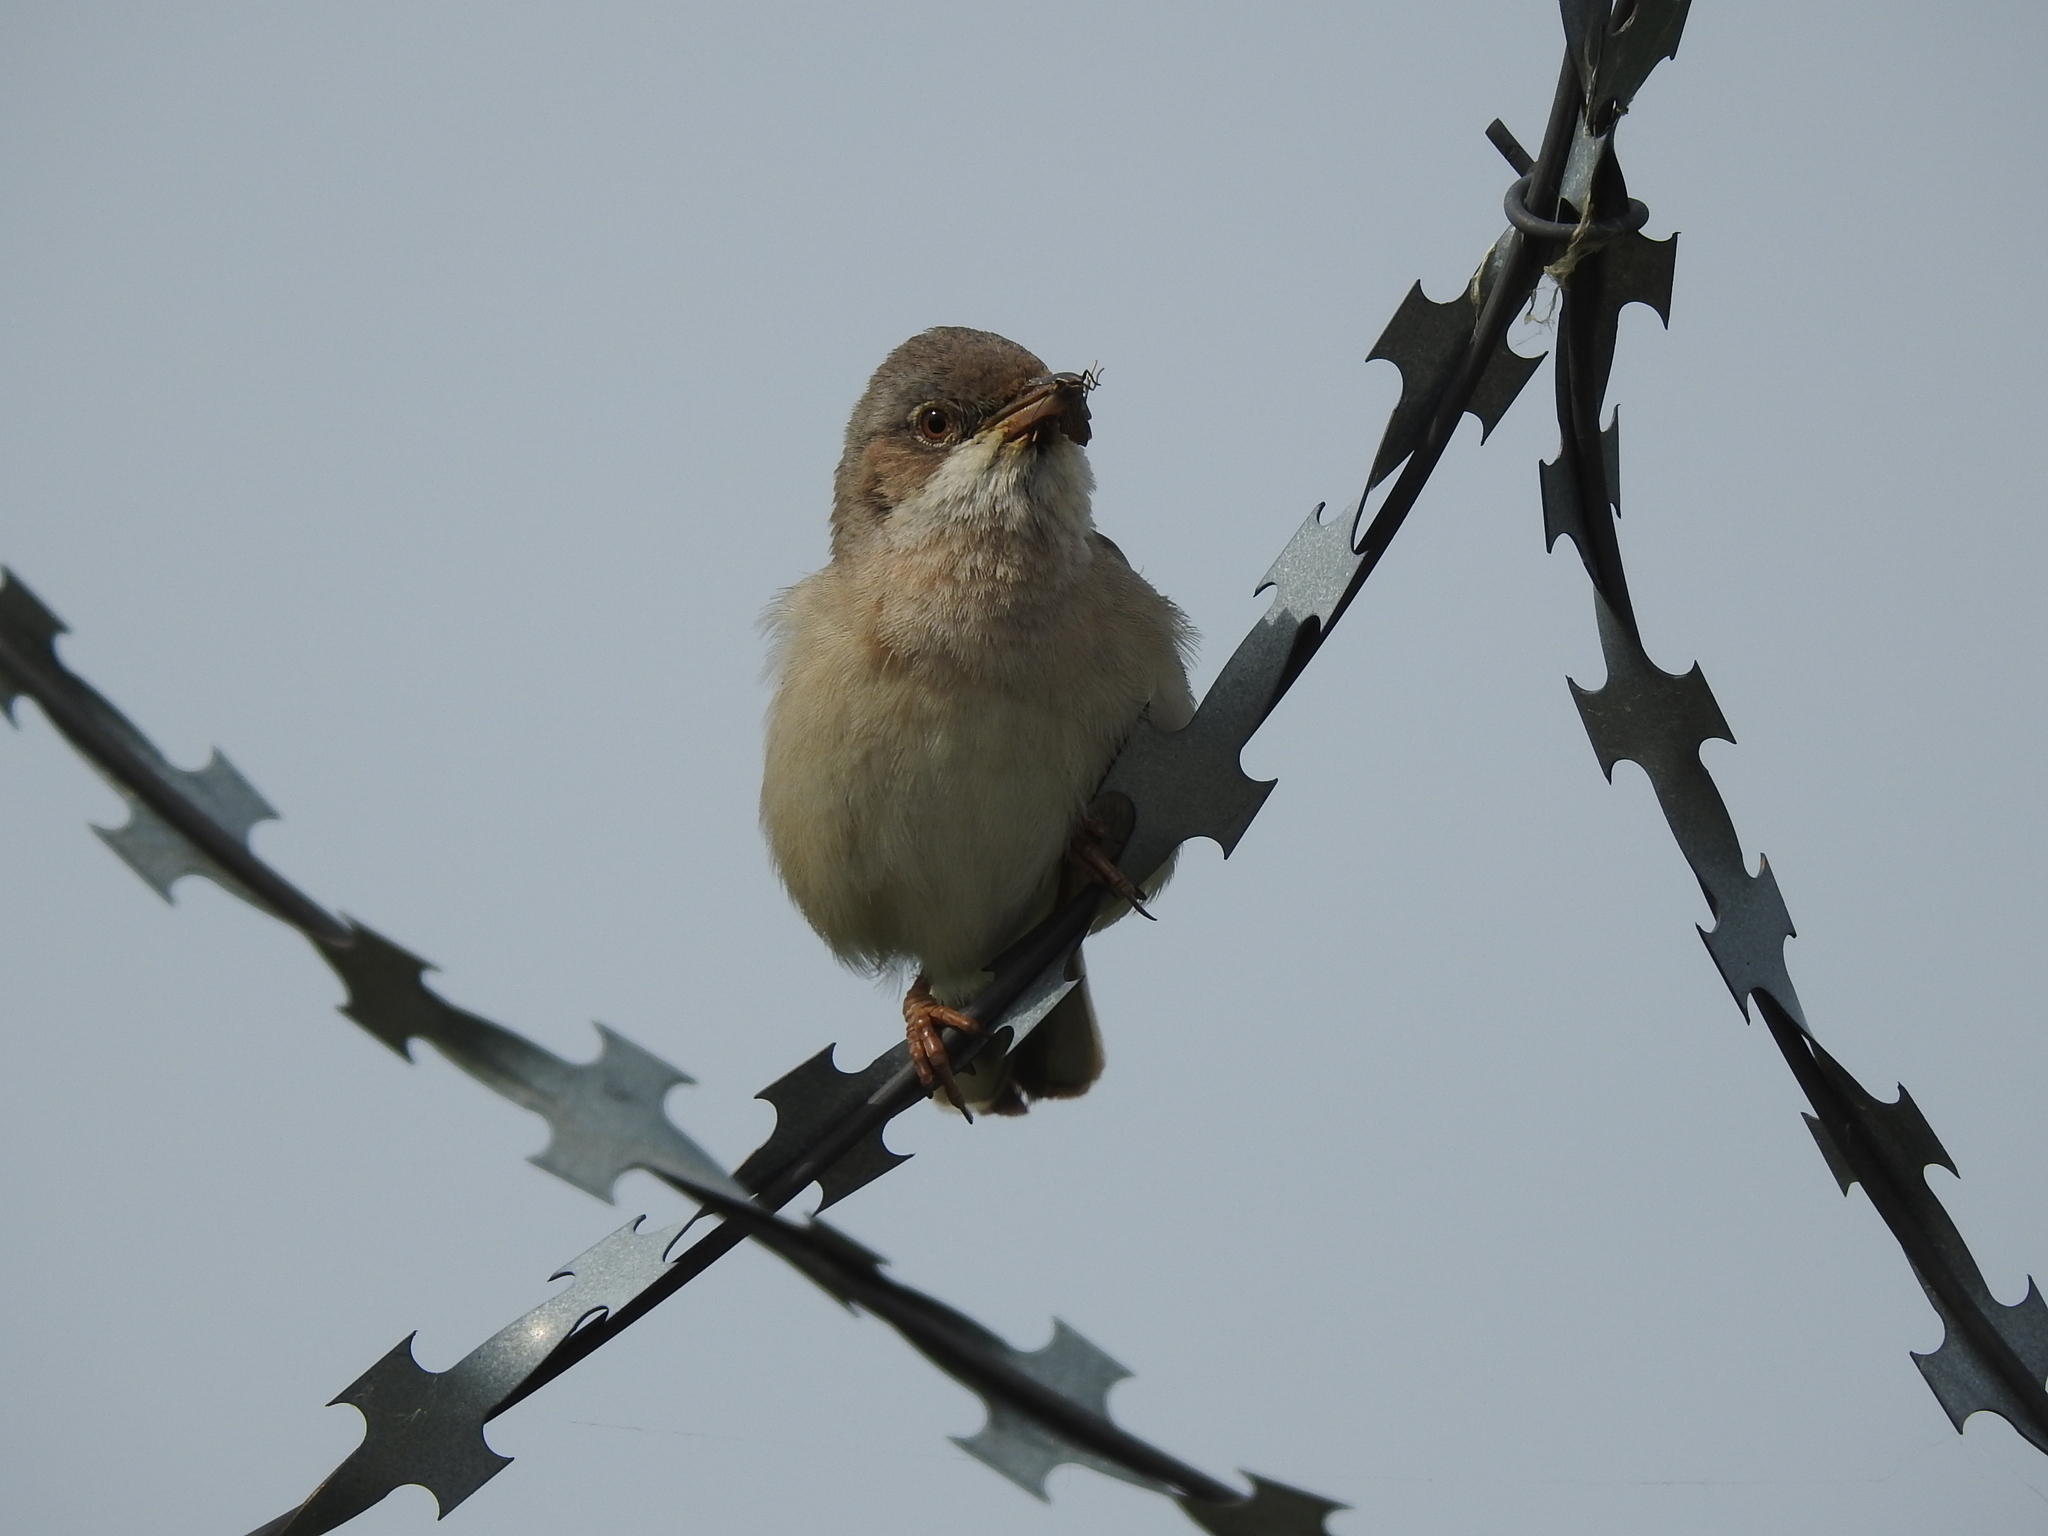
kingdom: Animalia
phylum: Chordata
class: Aves
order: Passeriformes
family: Sylviidae
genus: Sylvia
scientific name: Sylvia communis
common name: Common whitethroat
